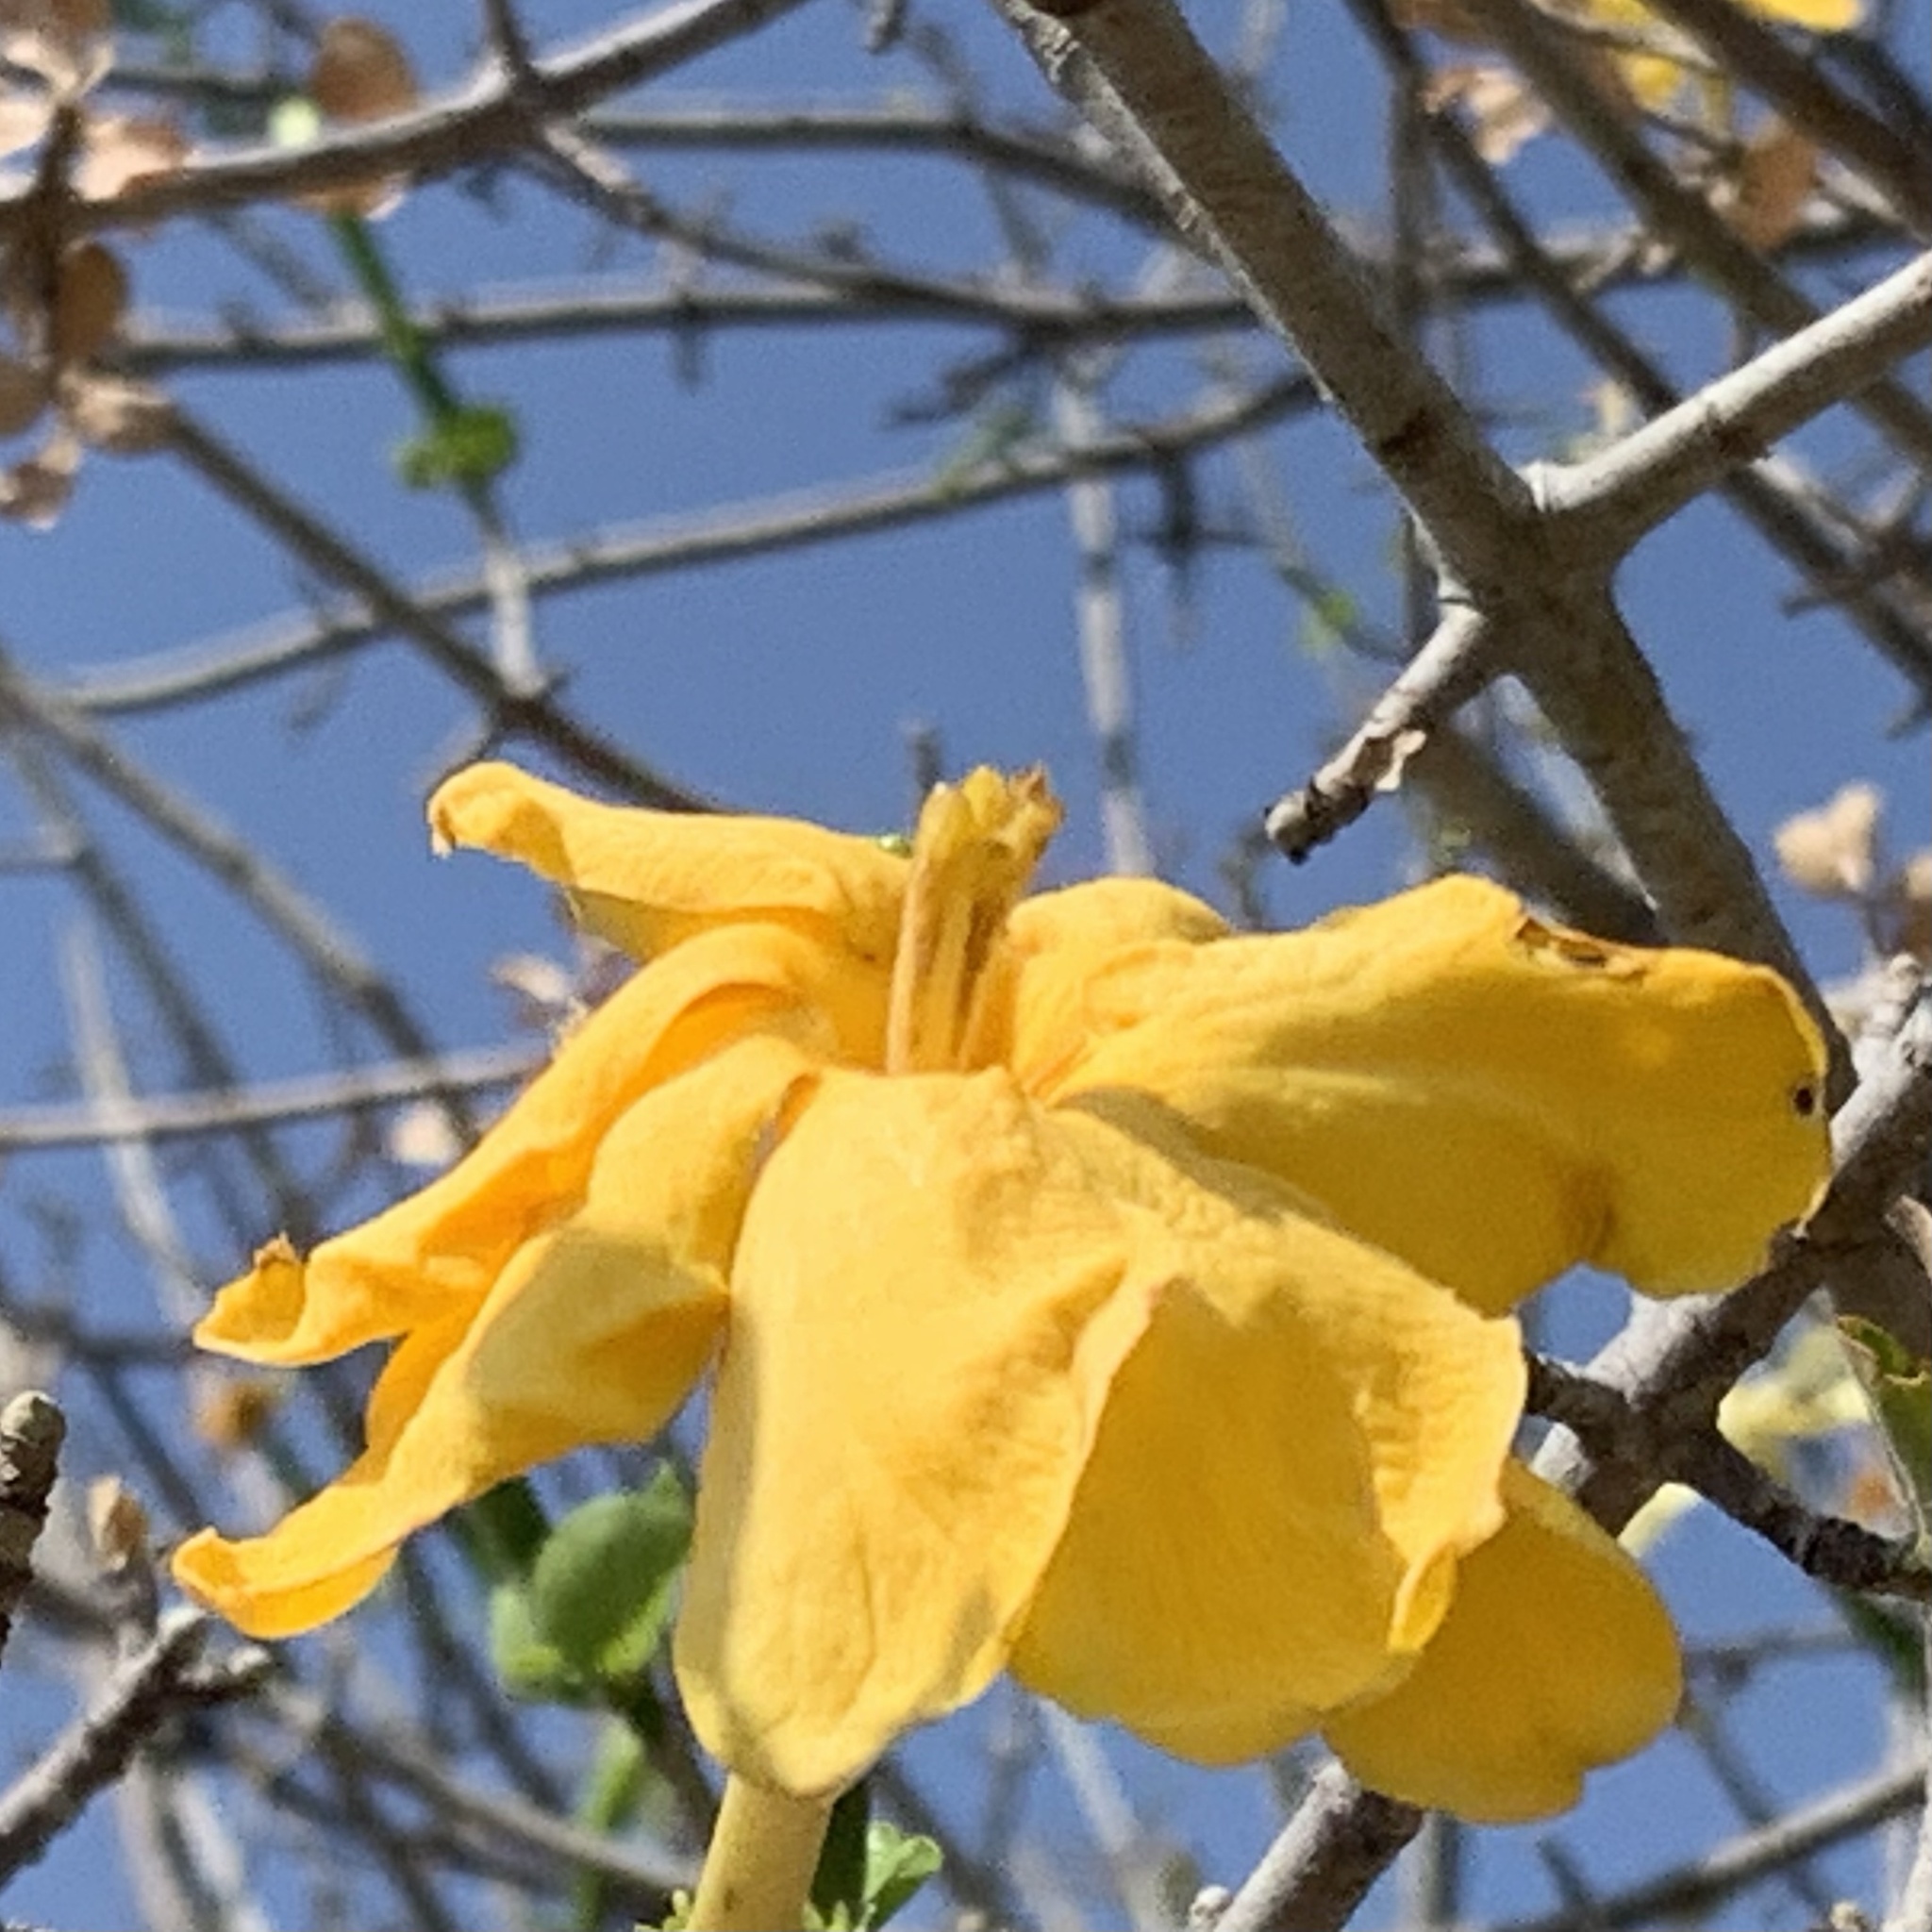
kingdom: Plantae
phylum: Tracheophyta
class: Magnoliopsida
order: Gentianales
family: Rubiaceae
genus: Gardenia
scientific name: Gardenia volkensii
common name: Common gardenia
